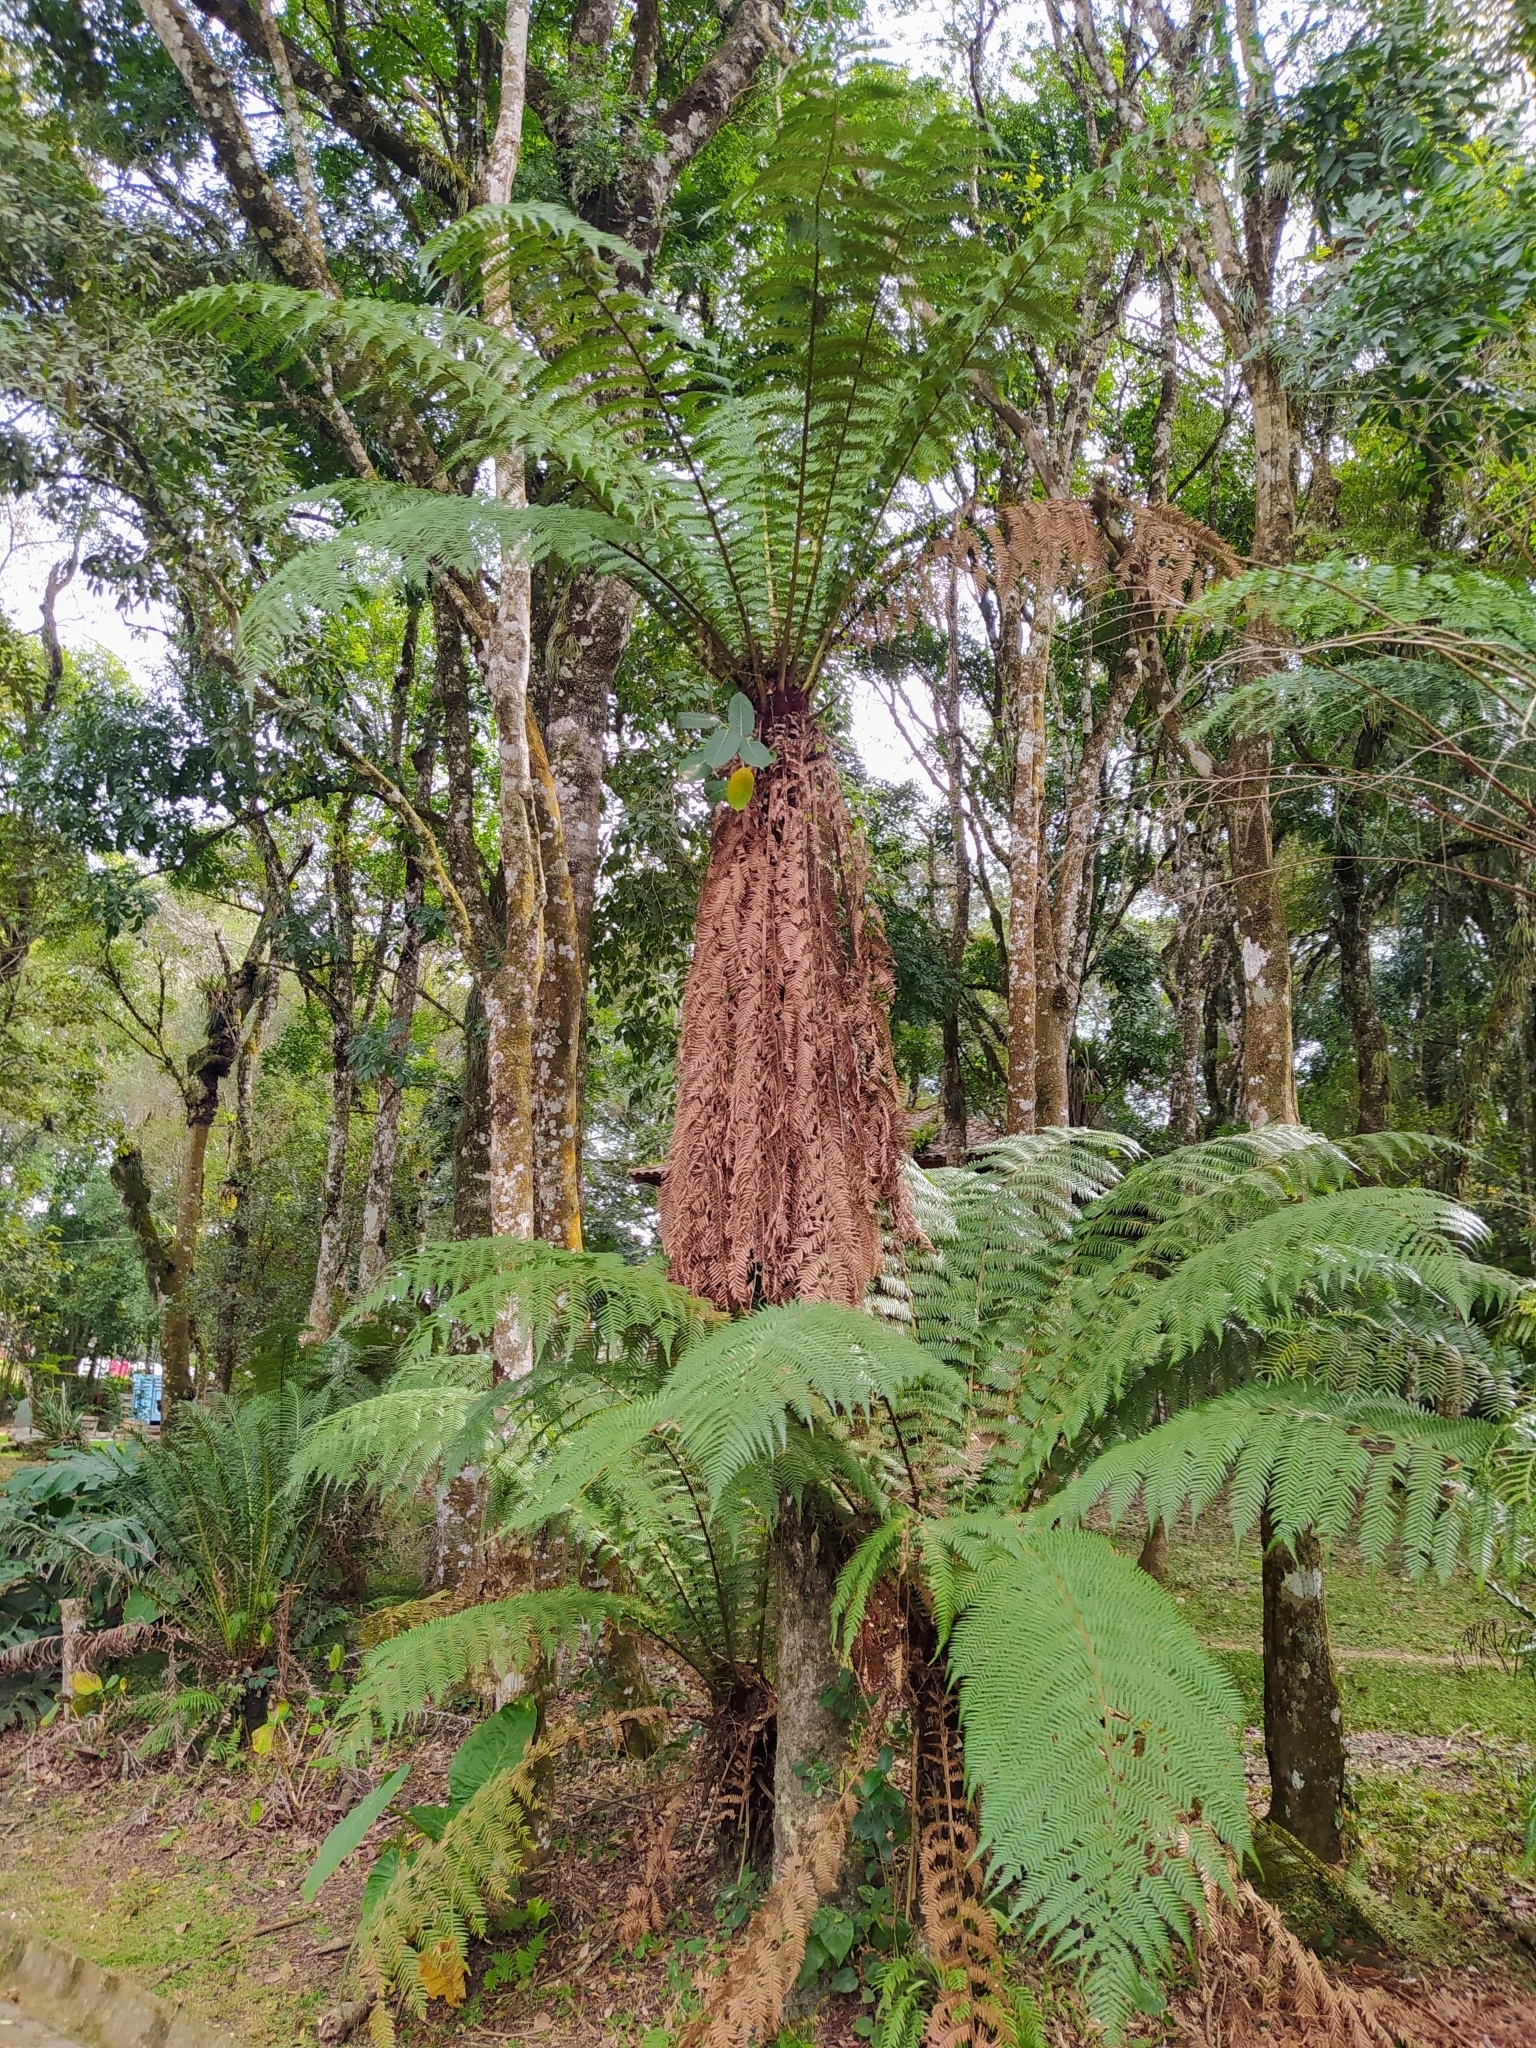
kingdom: Plantae
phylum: Tracheophyta
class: Polypodiopsida
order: Cyatheales
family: Dicksoniaceae
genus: Dicksonia
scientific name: Dicksonia sellowiana
